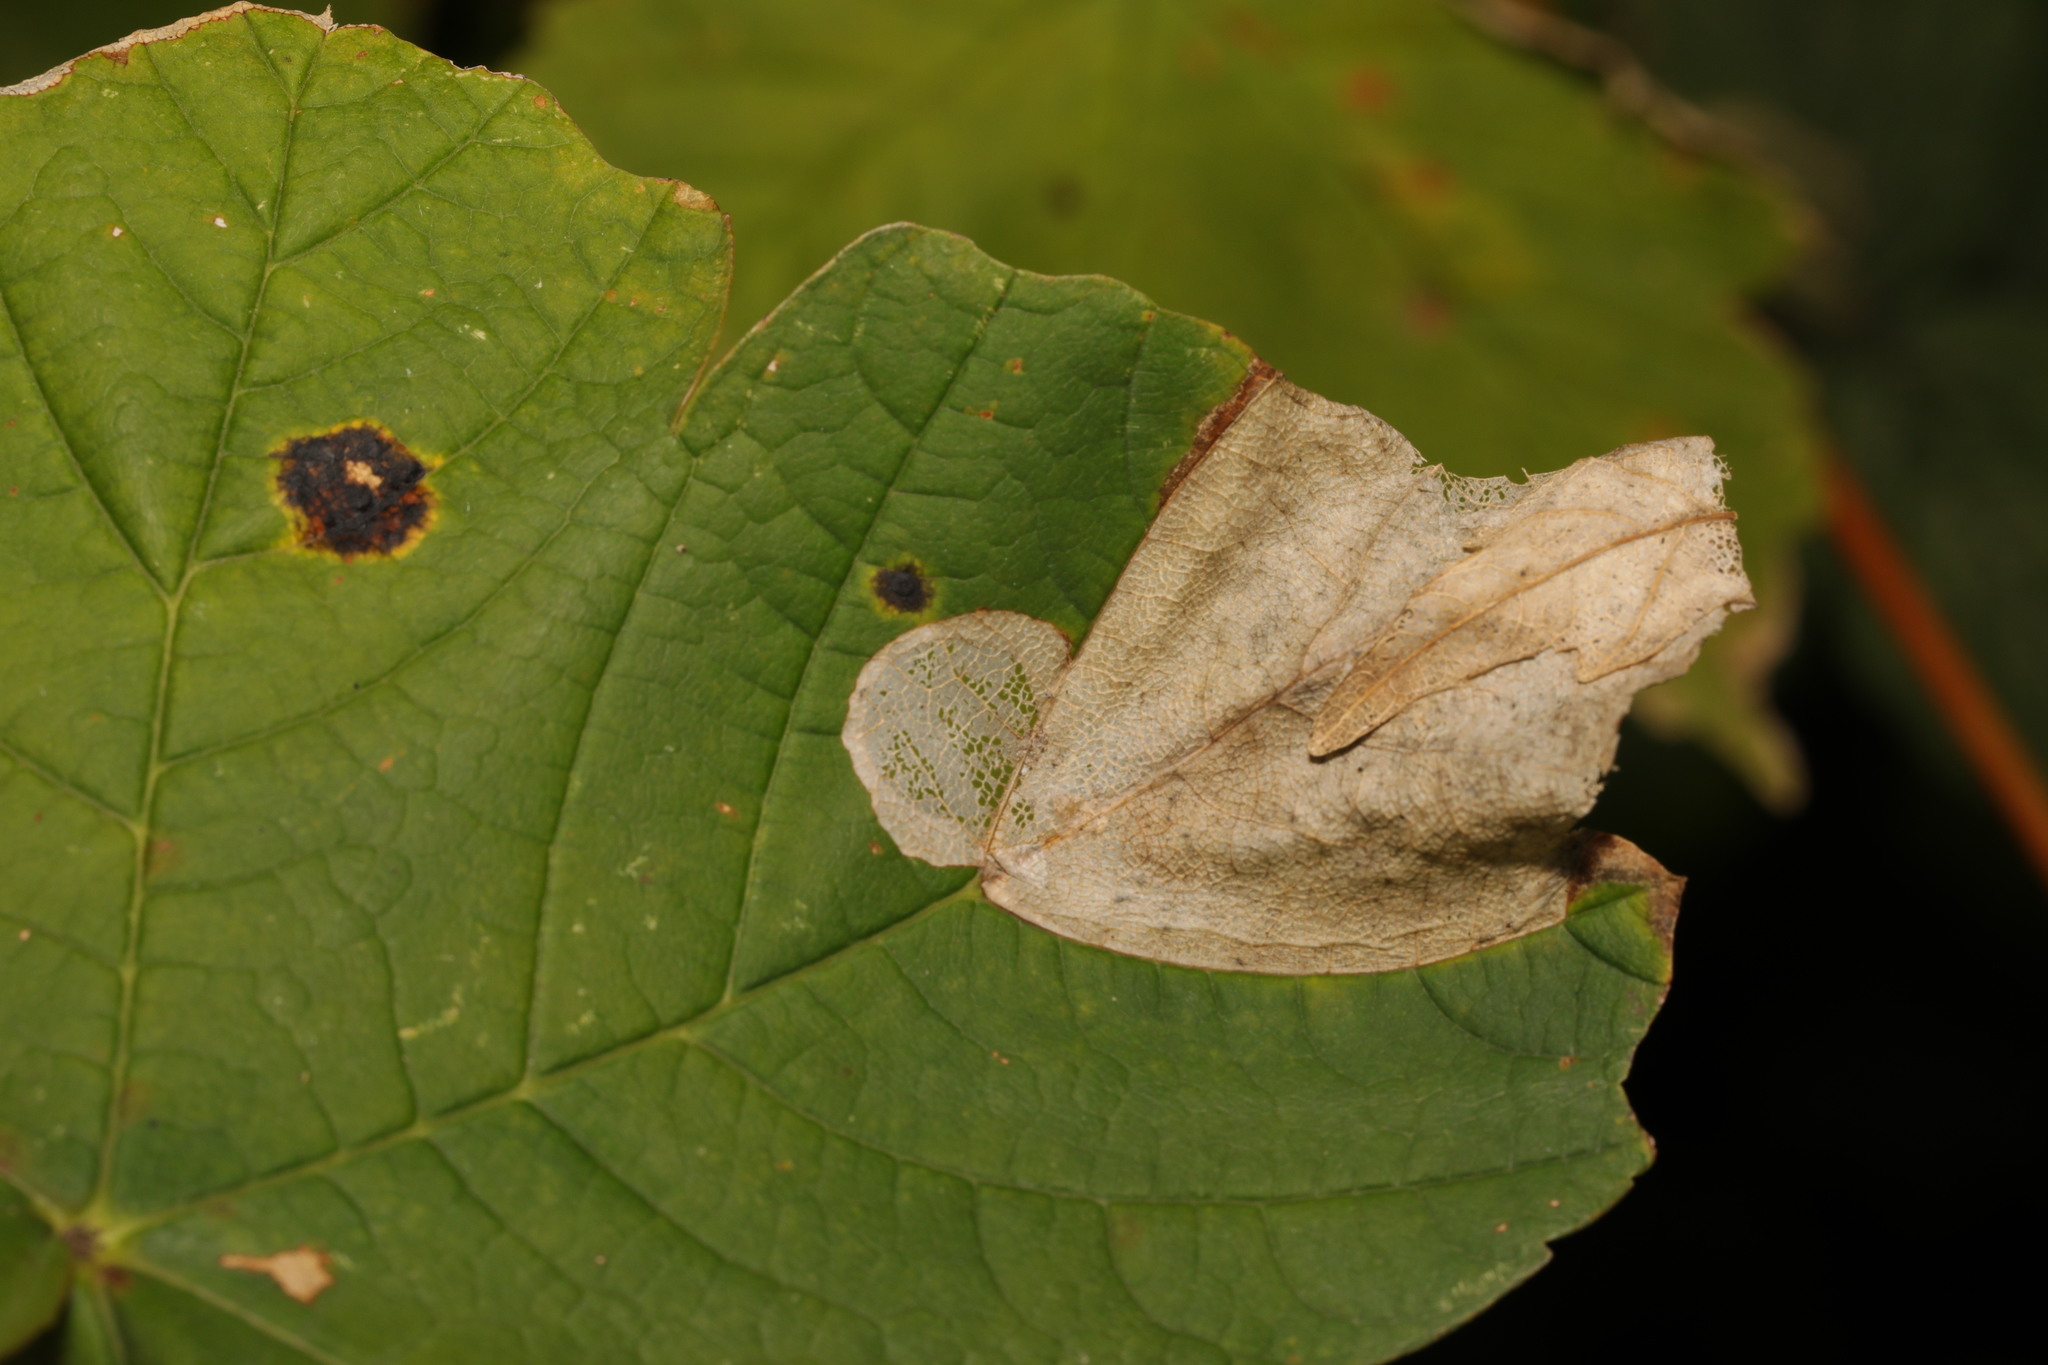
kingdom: Animalia
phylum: Arthropoda
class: Insecta
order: Hymenoptera
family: Tenthredinidae
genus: Heterarthrus
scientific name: Heterarthrus fiora
